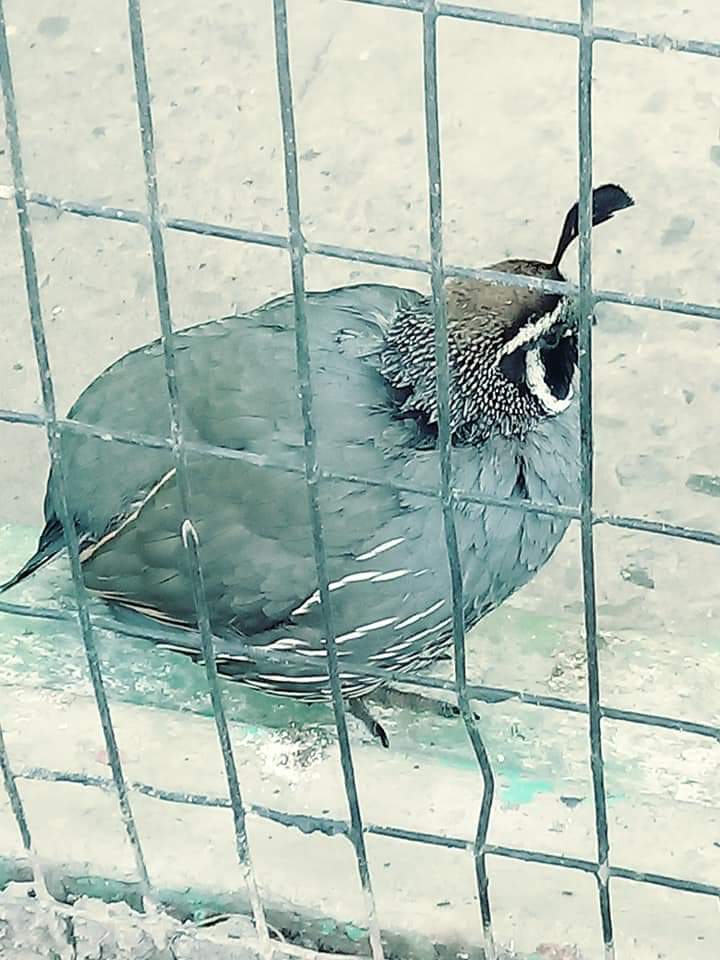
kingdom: Animalia
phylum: Chordata
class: Aves
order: Galliformes
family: Odontophoridae
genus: Callipepla
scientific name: Callipepla californica
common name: California quail
